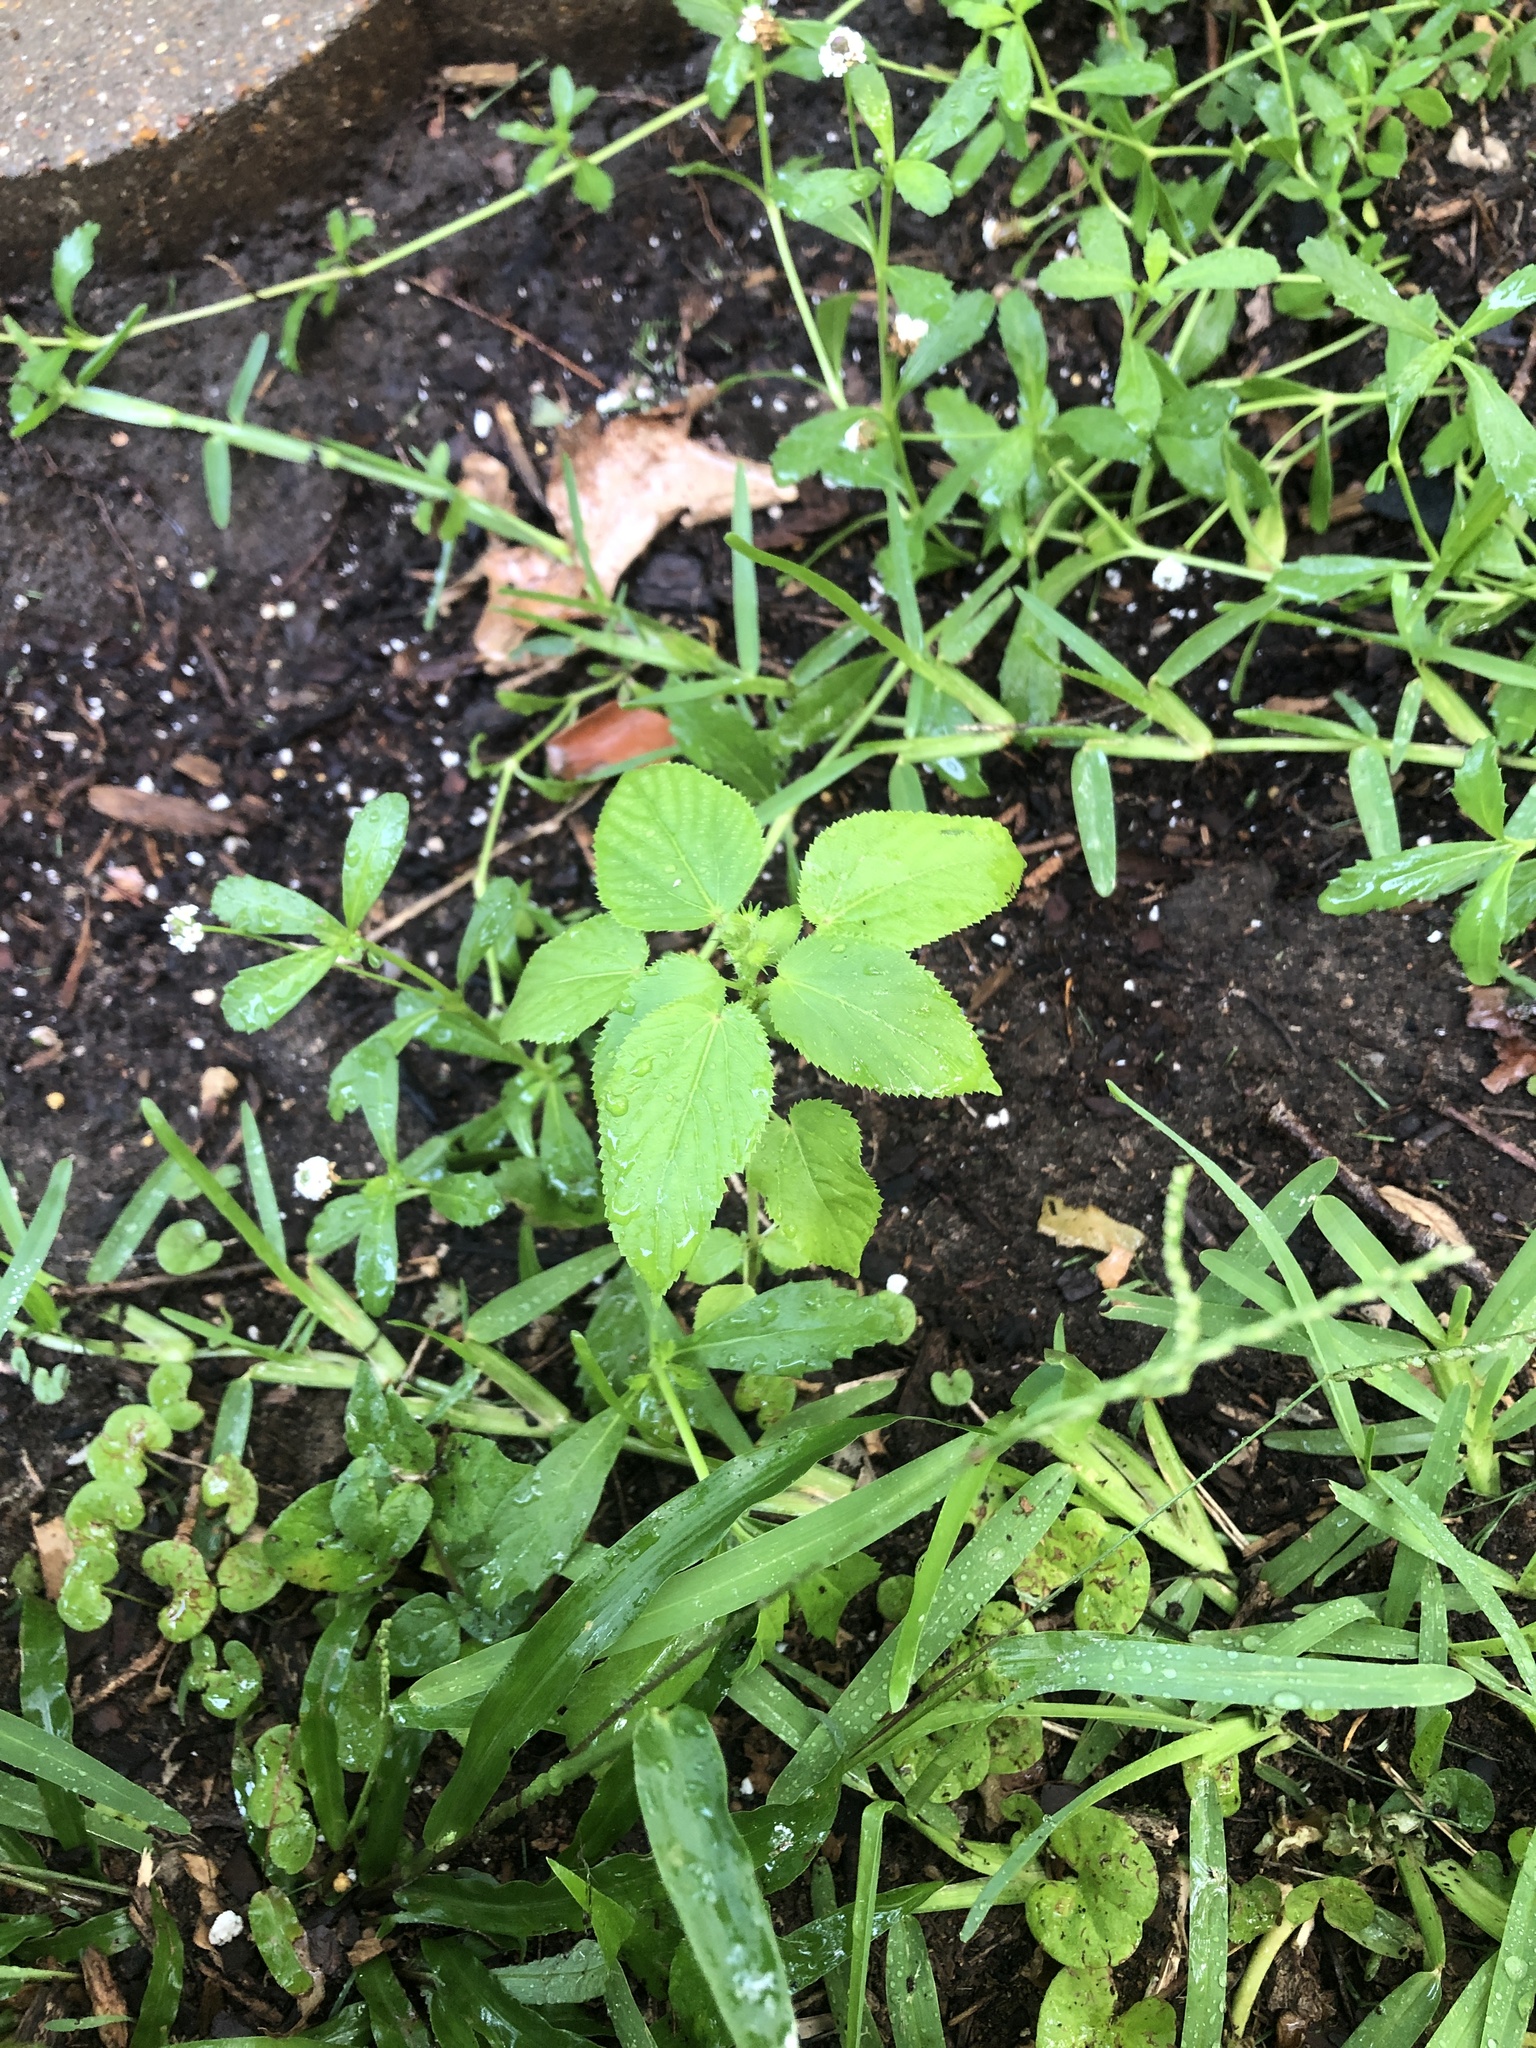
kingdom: Plantae
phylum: Tracheophyta
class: Magnoliopsida
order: Malpighiales
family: Euphorbiaceae
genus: Acalypha
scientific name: Acalypha ostryifolia
